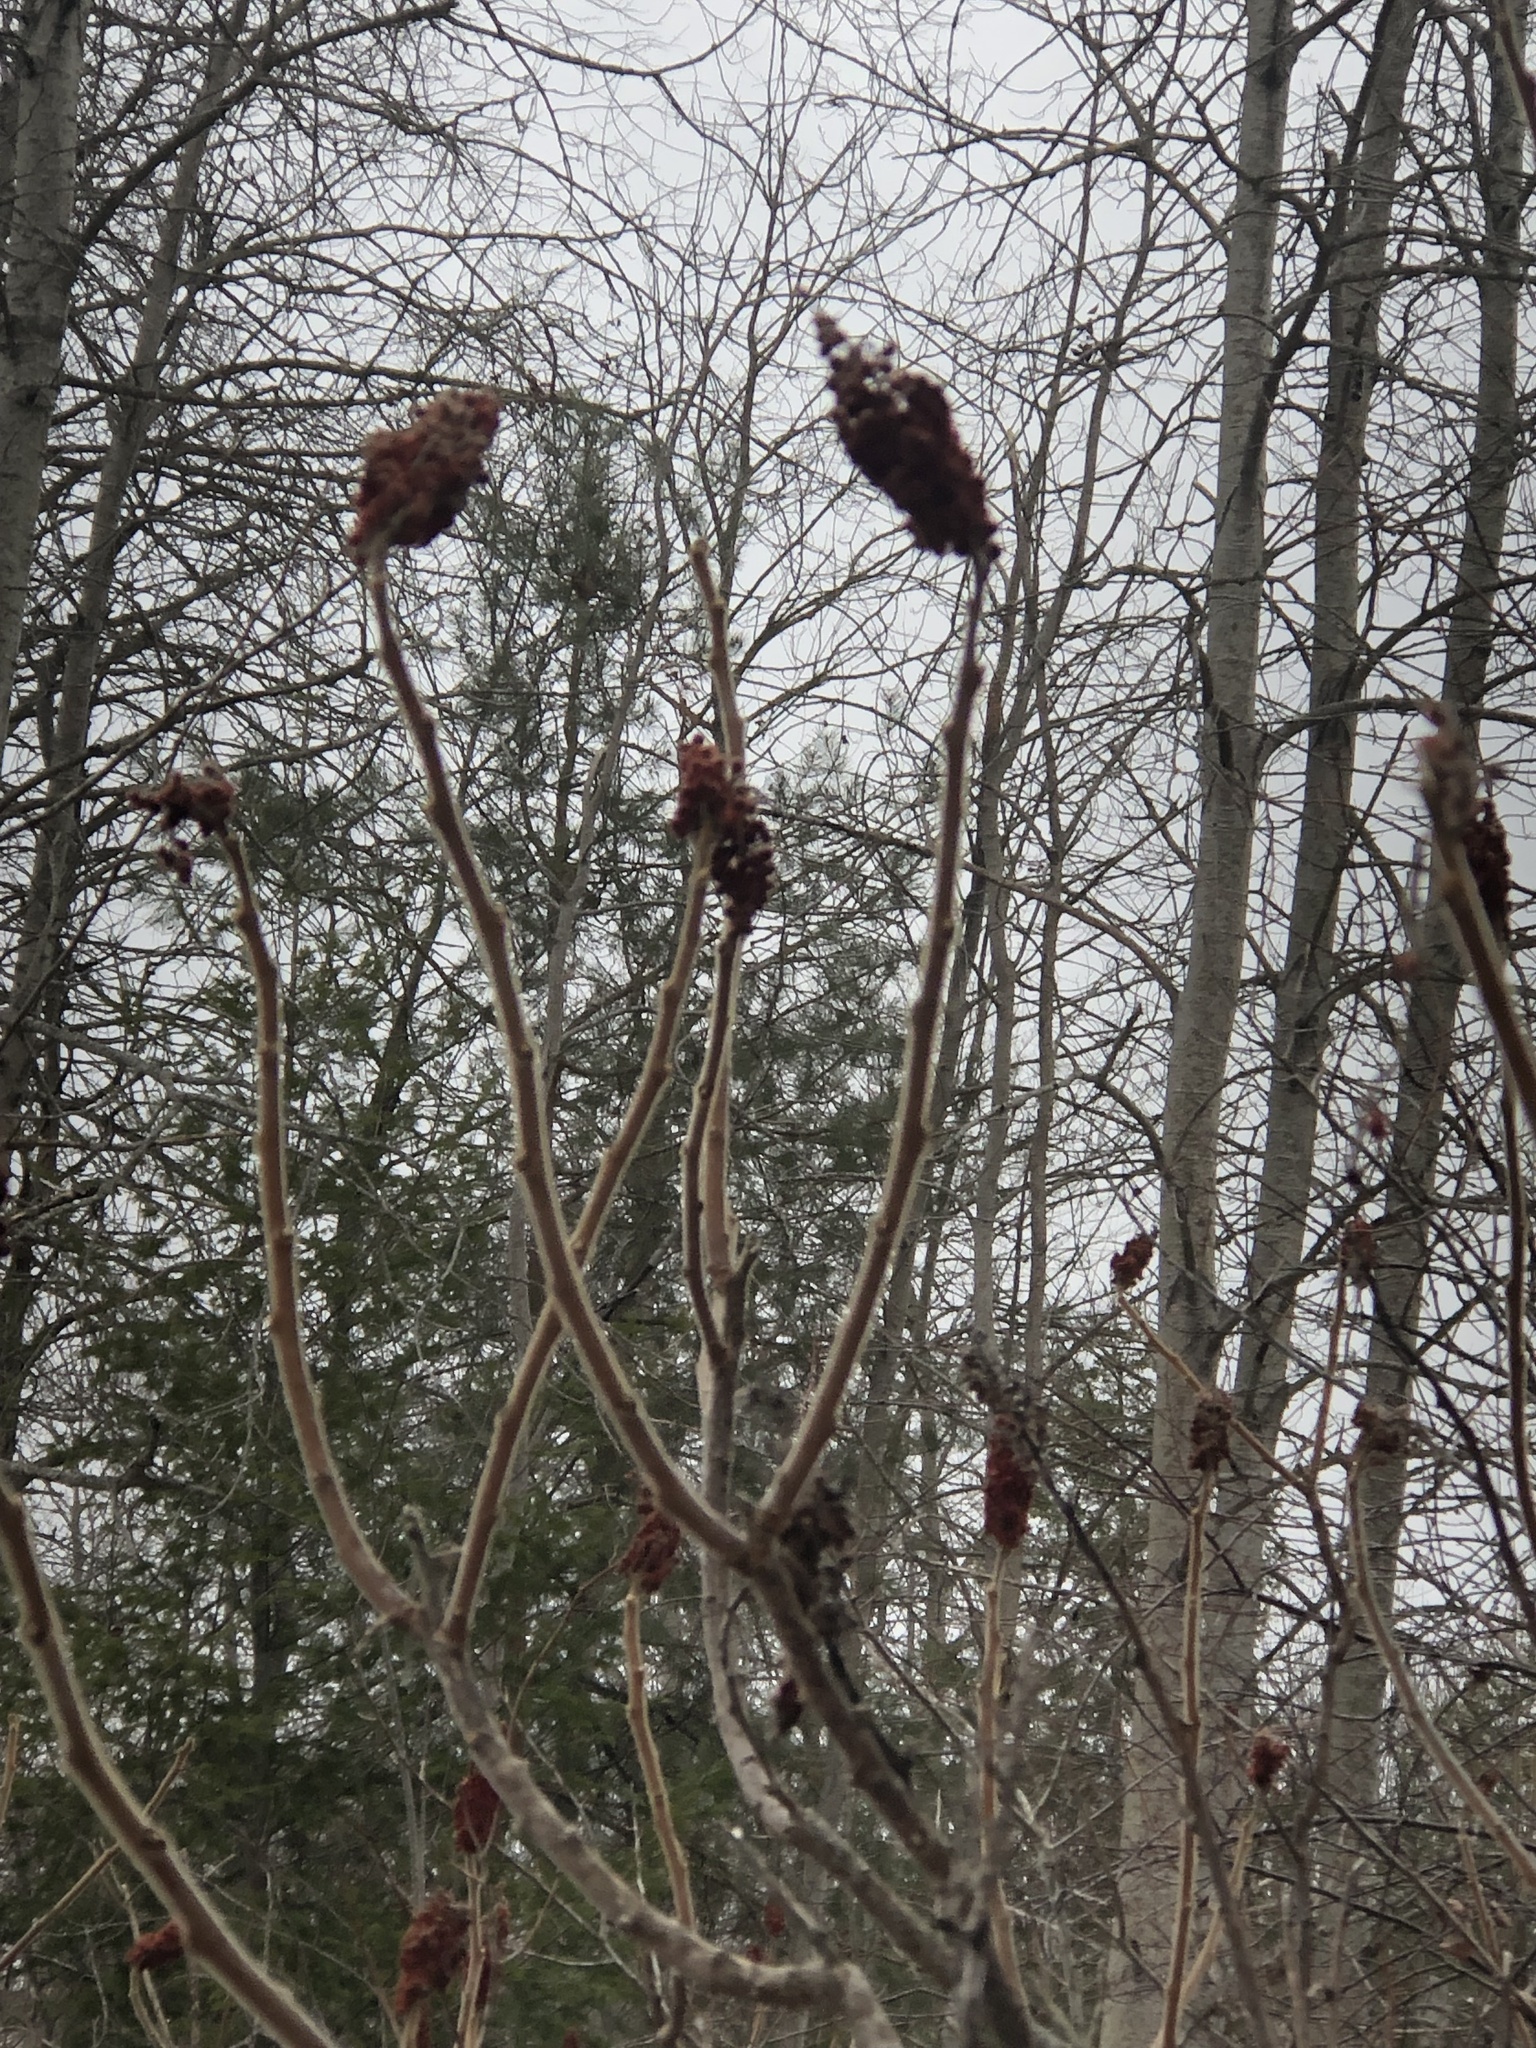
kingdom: Plantae
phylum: Tracheophyta
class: Magnoliopsida
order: Sapindales
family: Anacardiaceae
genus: Rhus
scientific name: Rhus typhina
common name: Staghorn sumac
